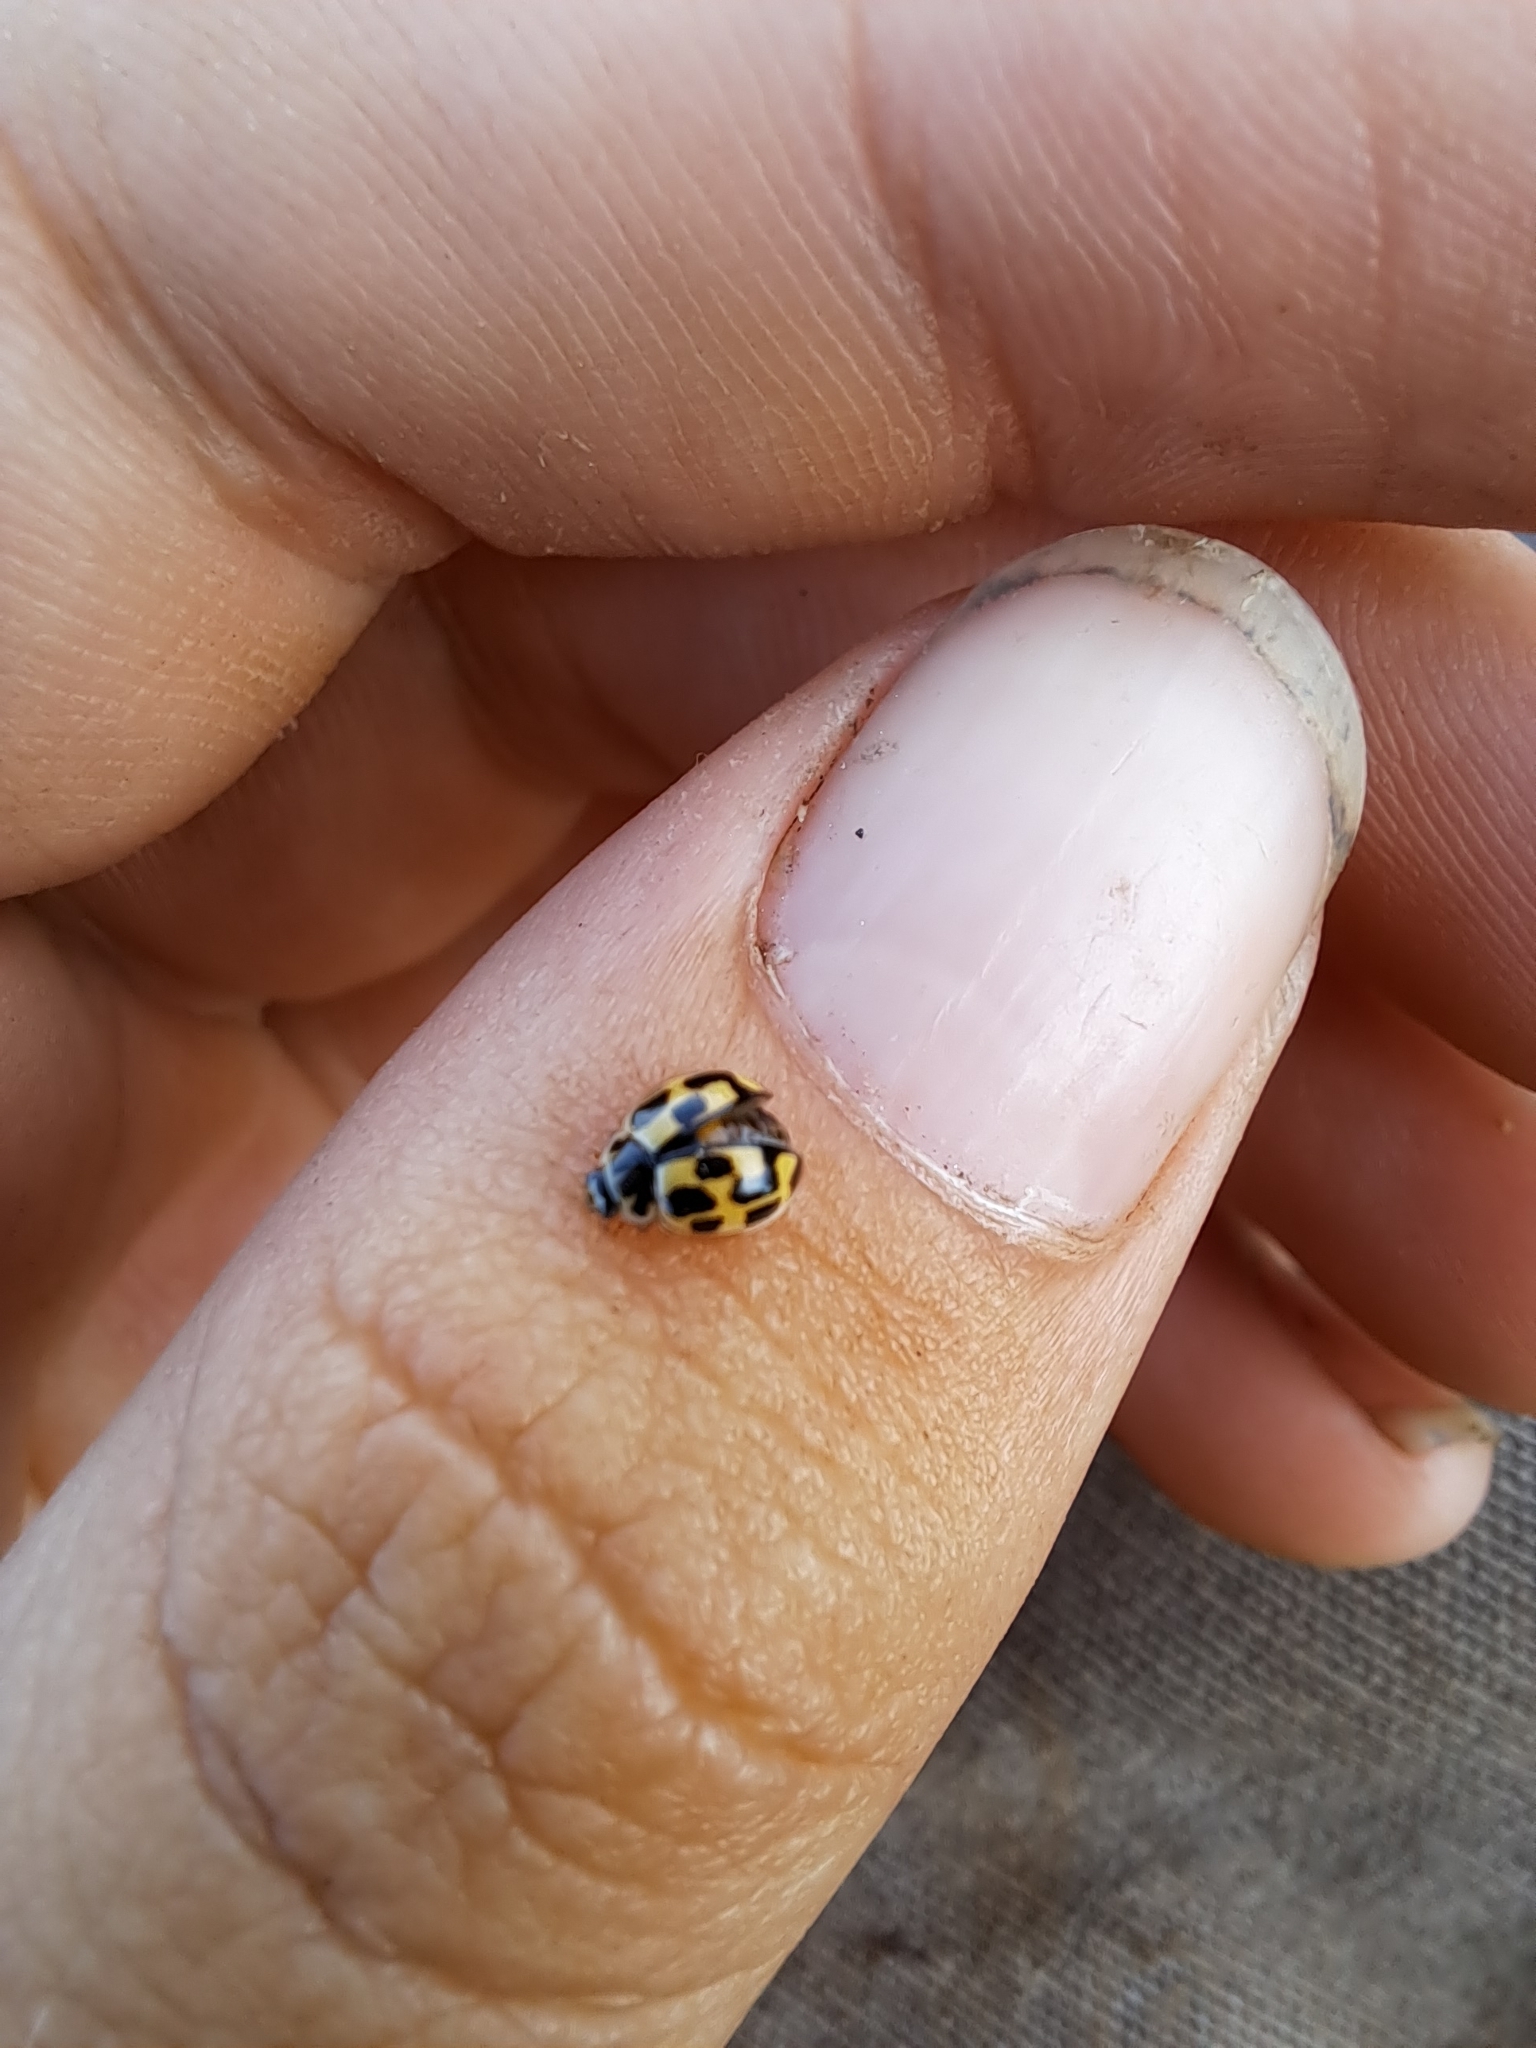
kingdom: Animalia
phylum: Arthropoda
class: Insecta
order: Coleoptera
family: Coccinellidae
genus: Propylaea
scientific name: Propylaea quatuordecimpunctata
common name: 14-spotted ladybird beetle
